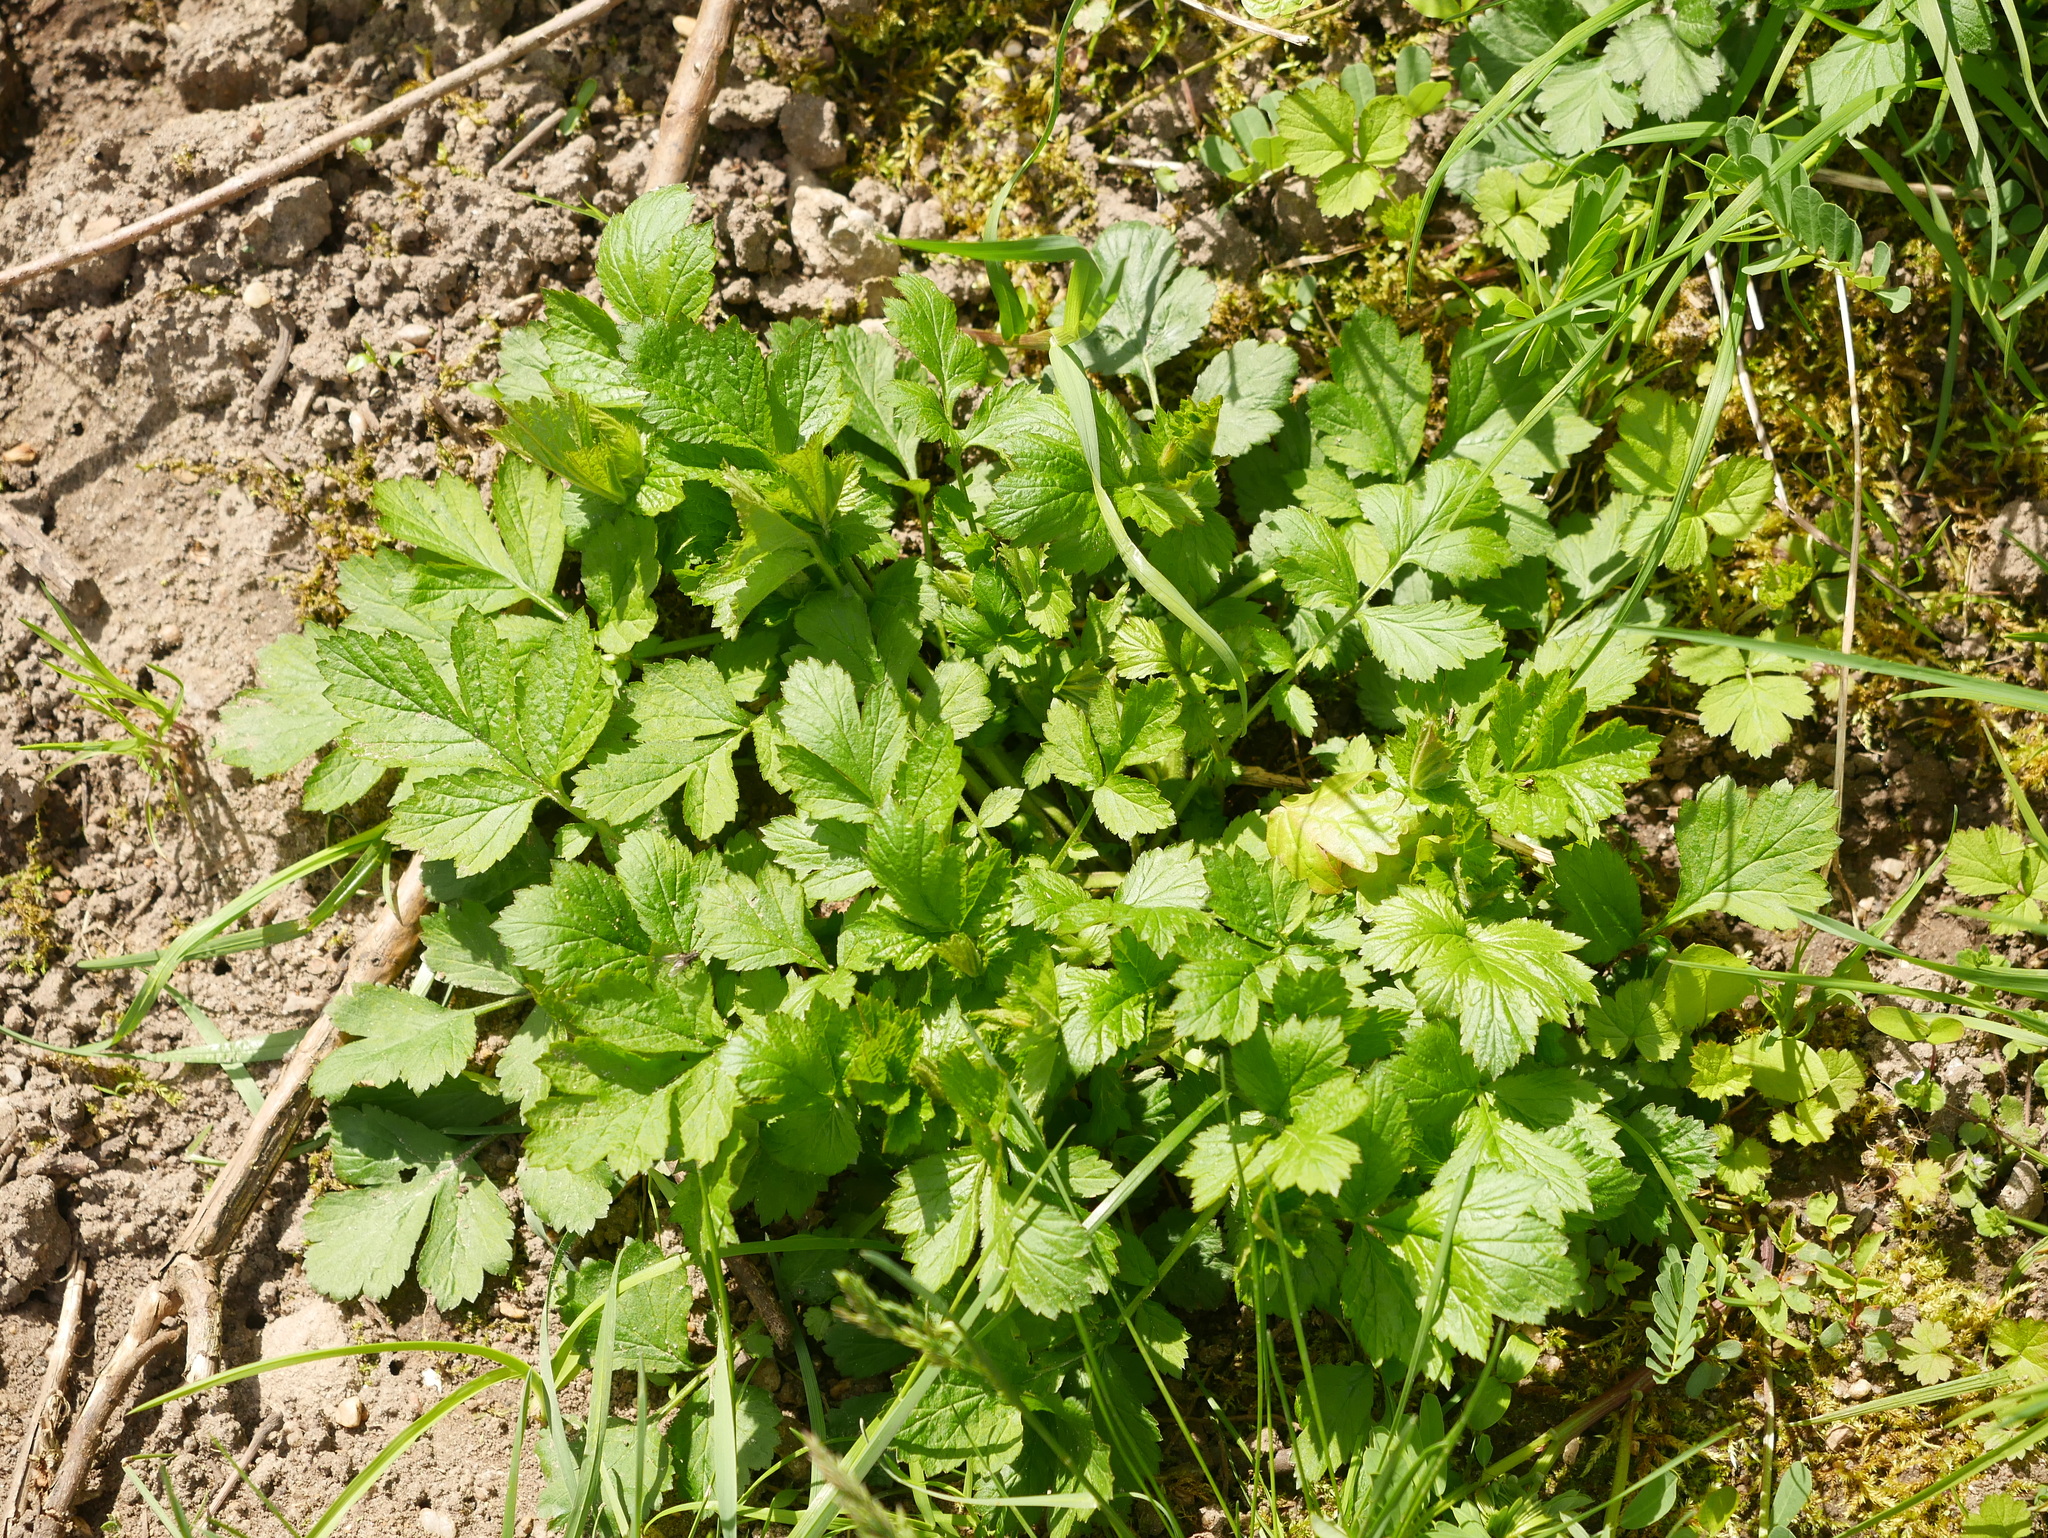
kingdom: Plantae
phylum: Tracheophyta
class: Magnoliopsida
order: Rosales
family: Rosaceae
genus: Geum
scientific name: Geum urbanum
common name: Wood avens
